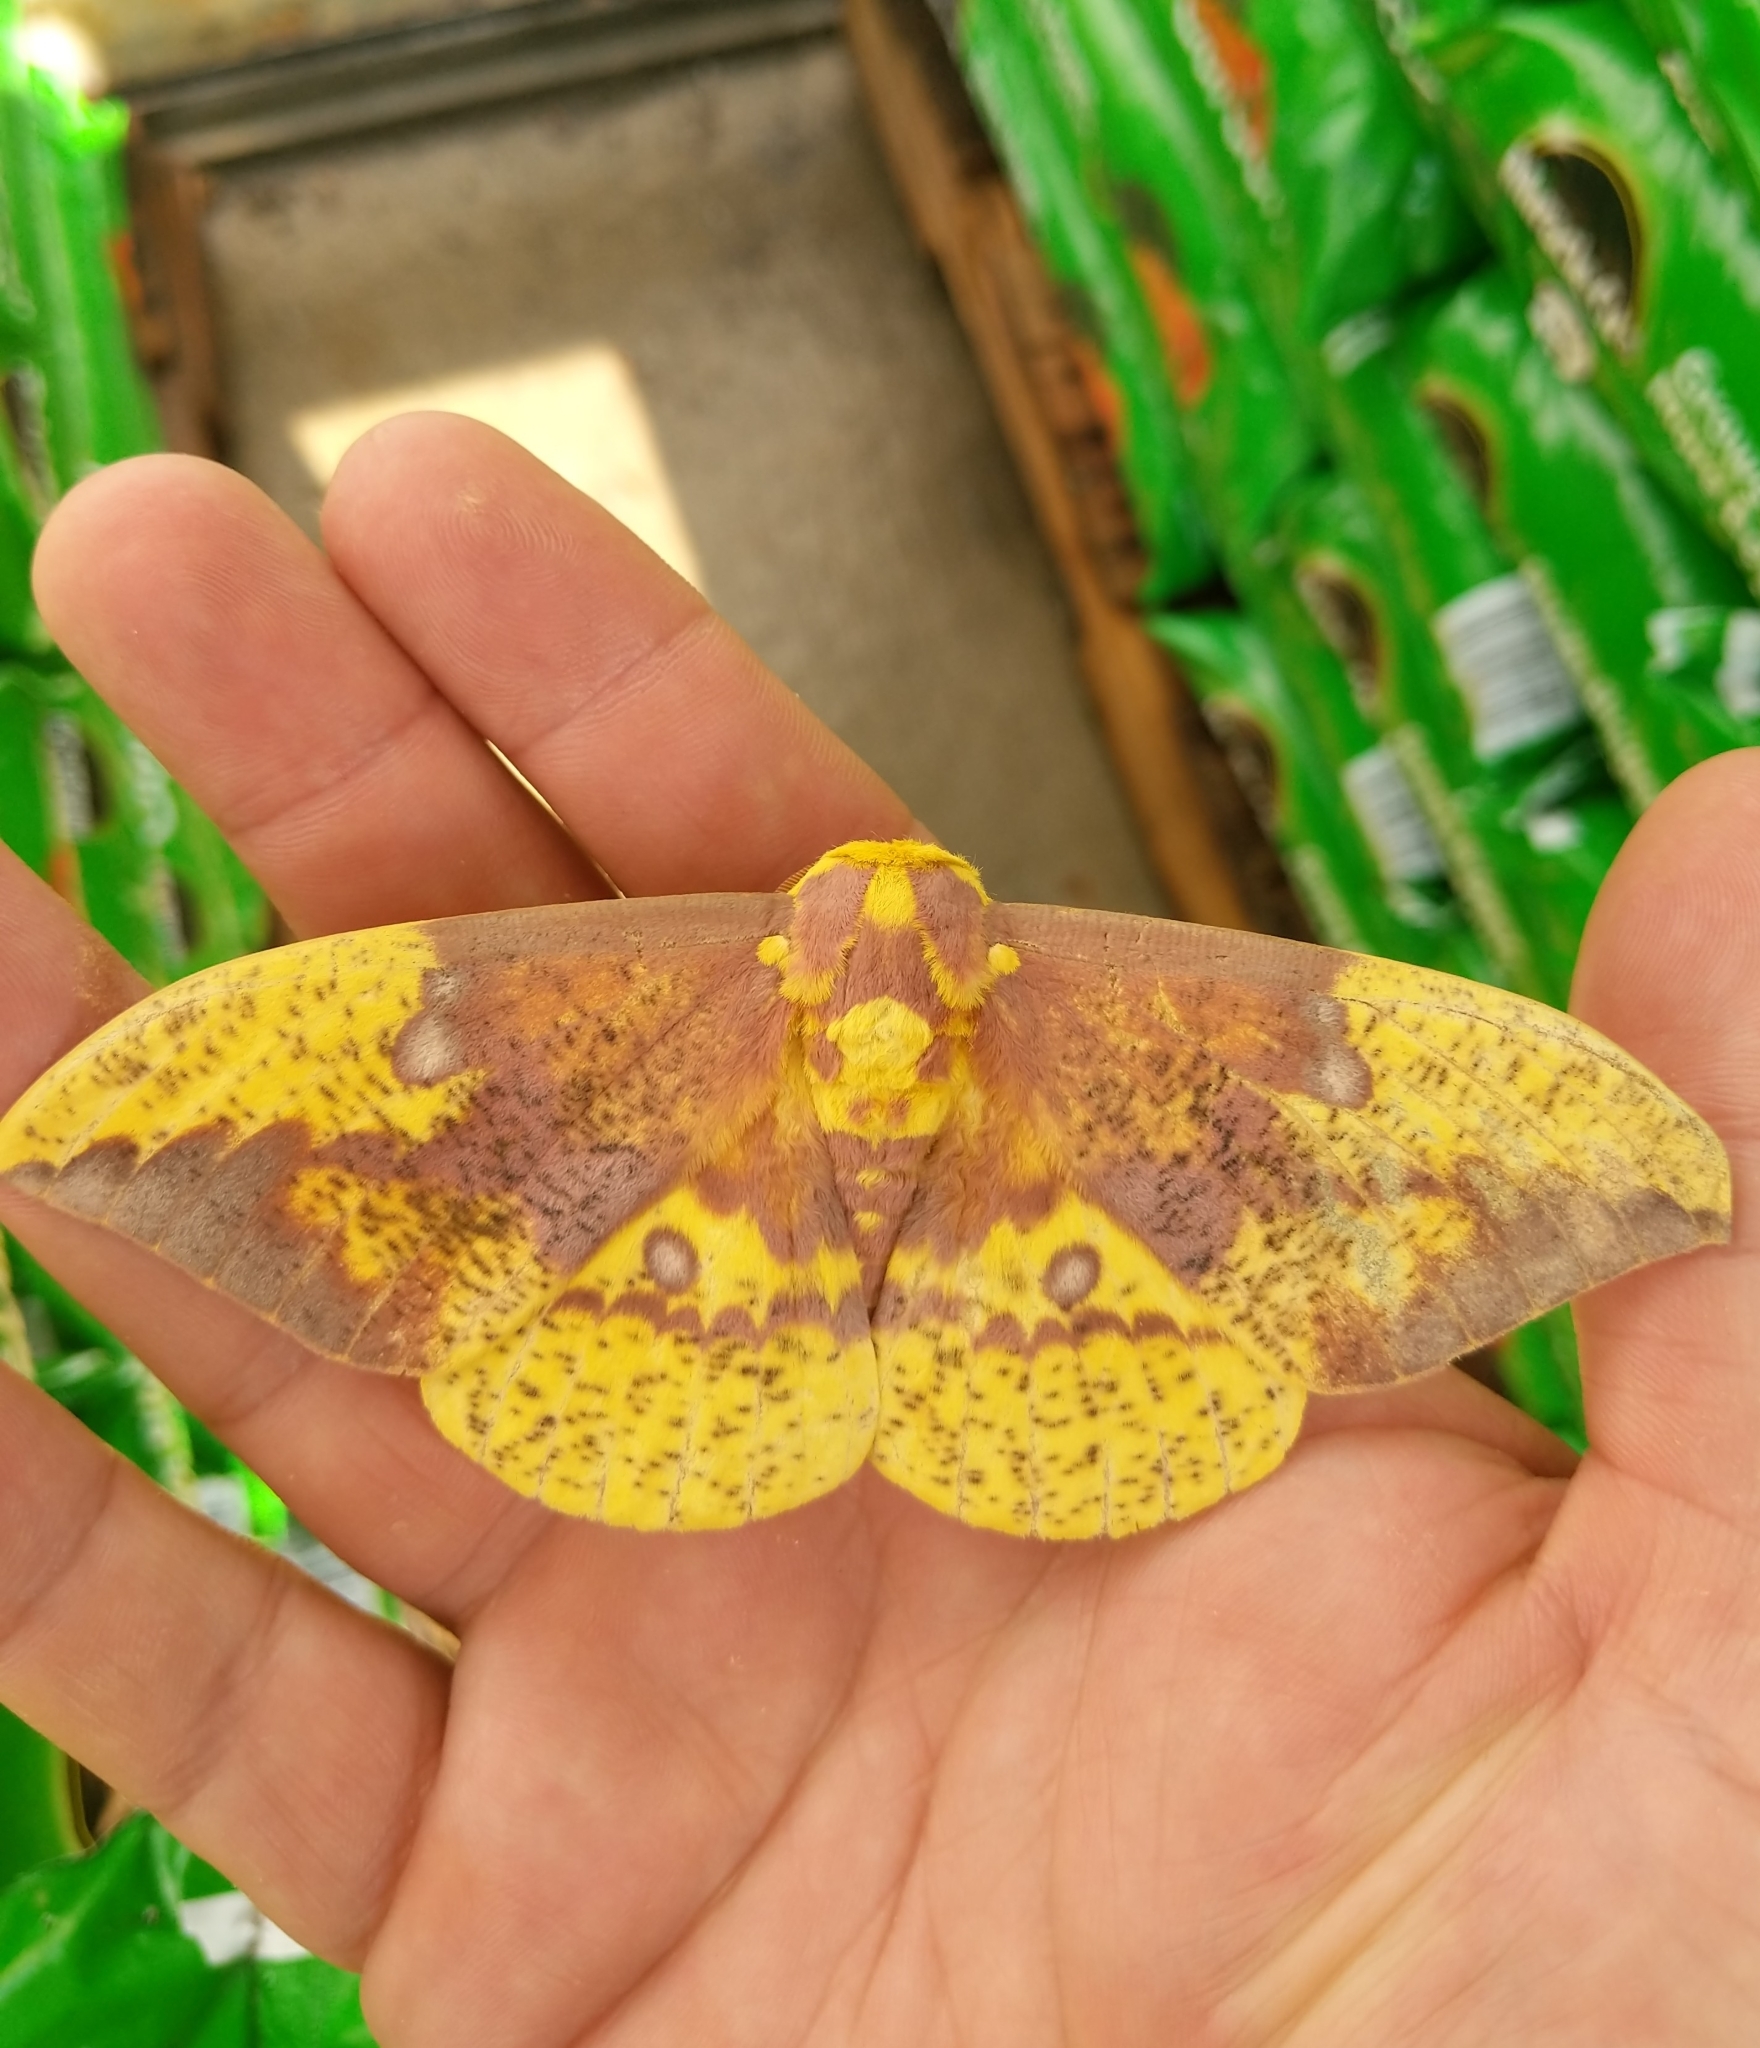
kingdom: Animalia
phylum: Arthropoda
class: Insecta
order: Lepidoptera
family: Saturniidae
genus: Eacles
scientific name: Eacles imperialis
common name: Imperial moth
